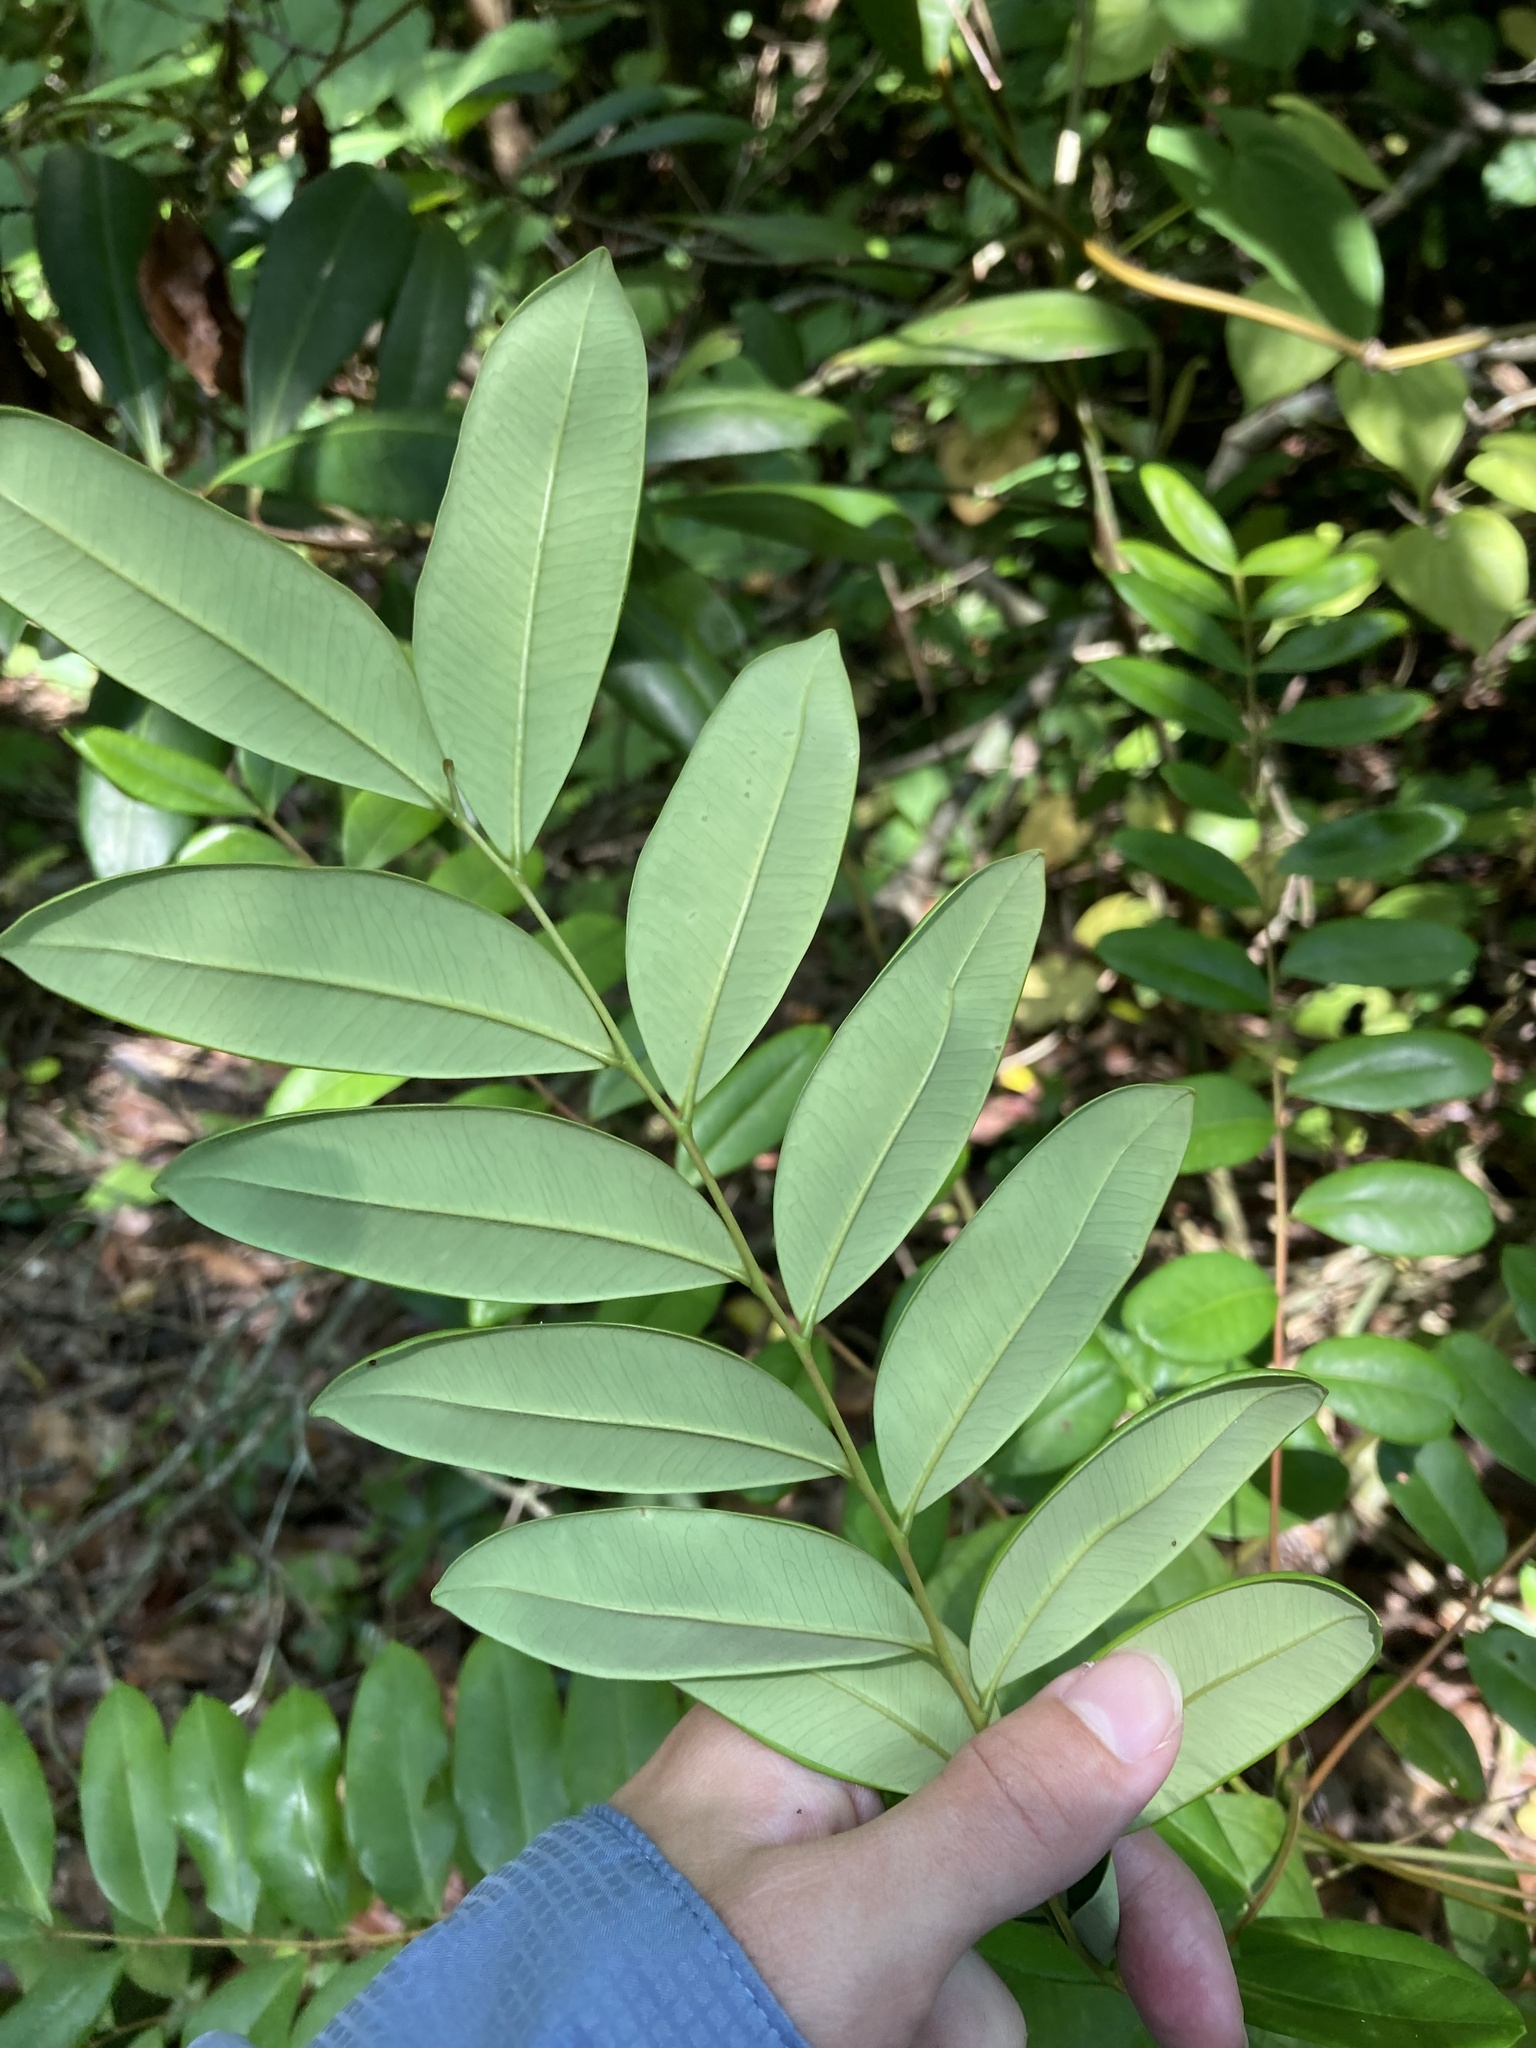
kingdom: Plantae
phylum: Tracheophyta
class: Magnoliopsida
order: Sapindales
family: Simaroubaceae
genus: Simarouba
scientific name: Simarouba glauca
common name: Dysentery-bark
